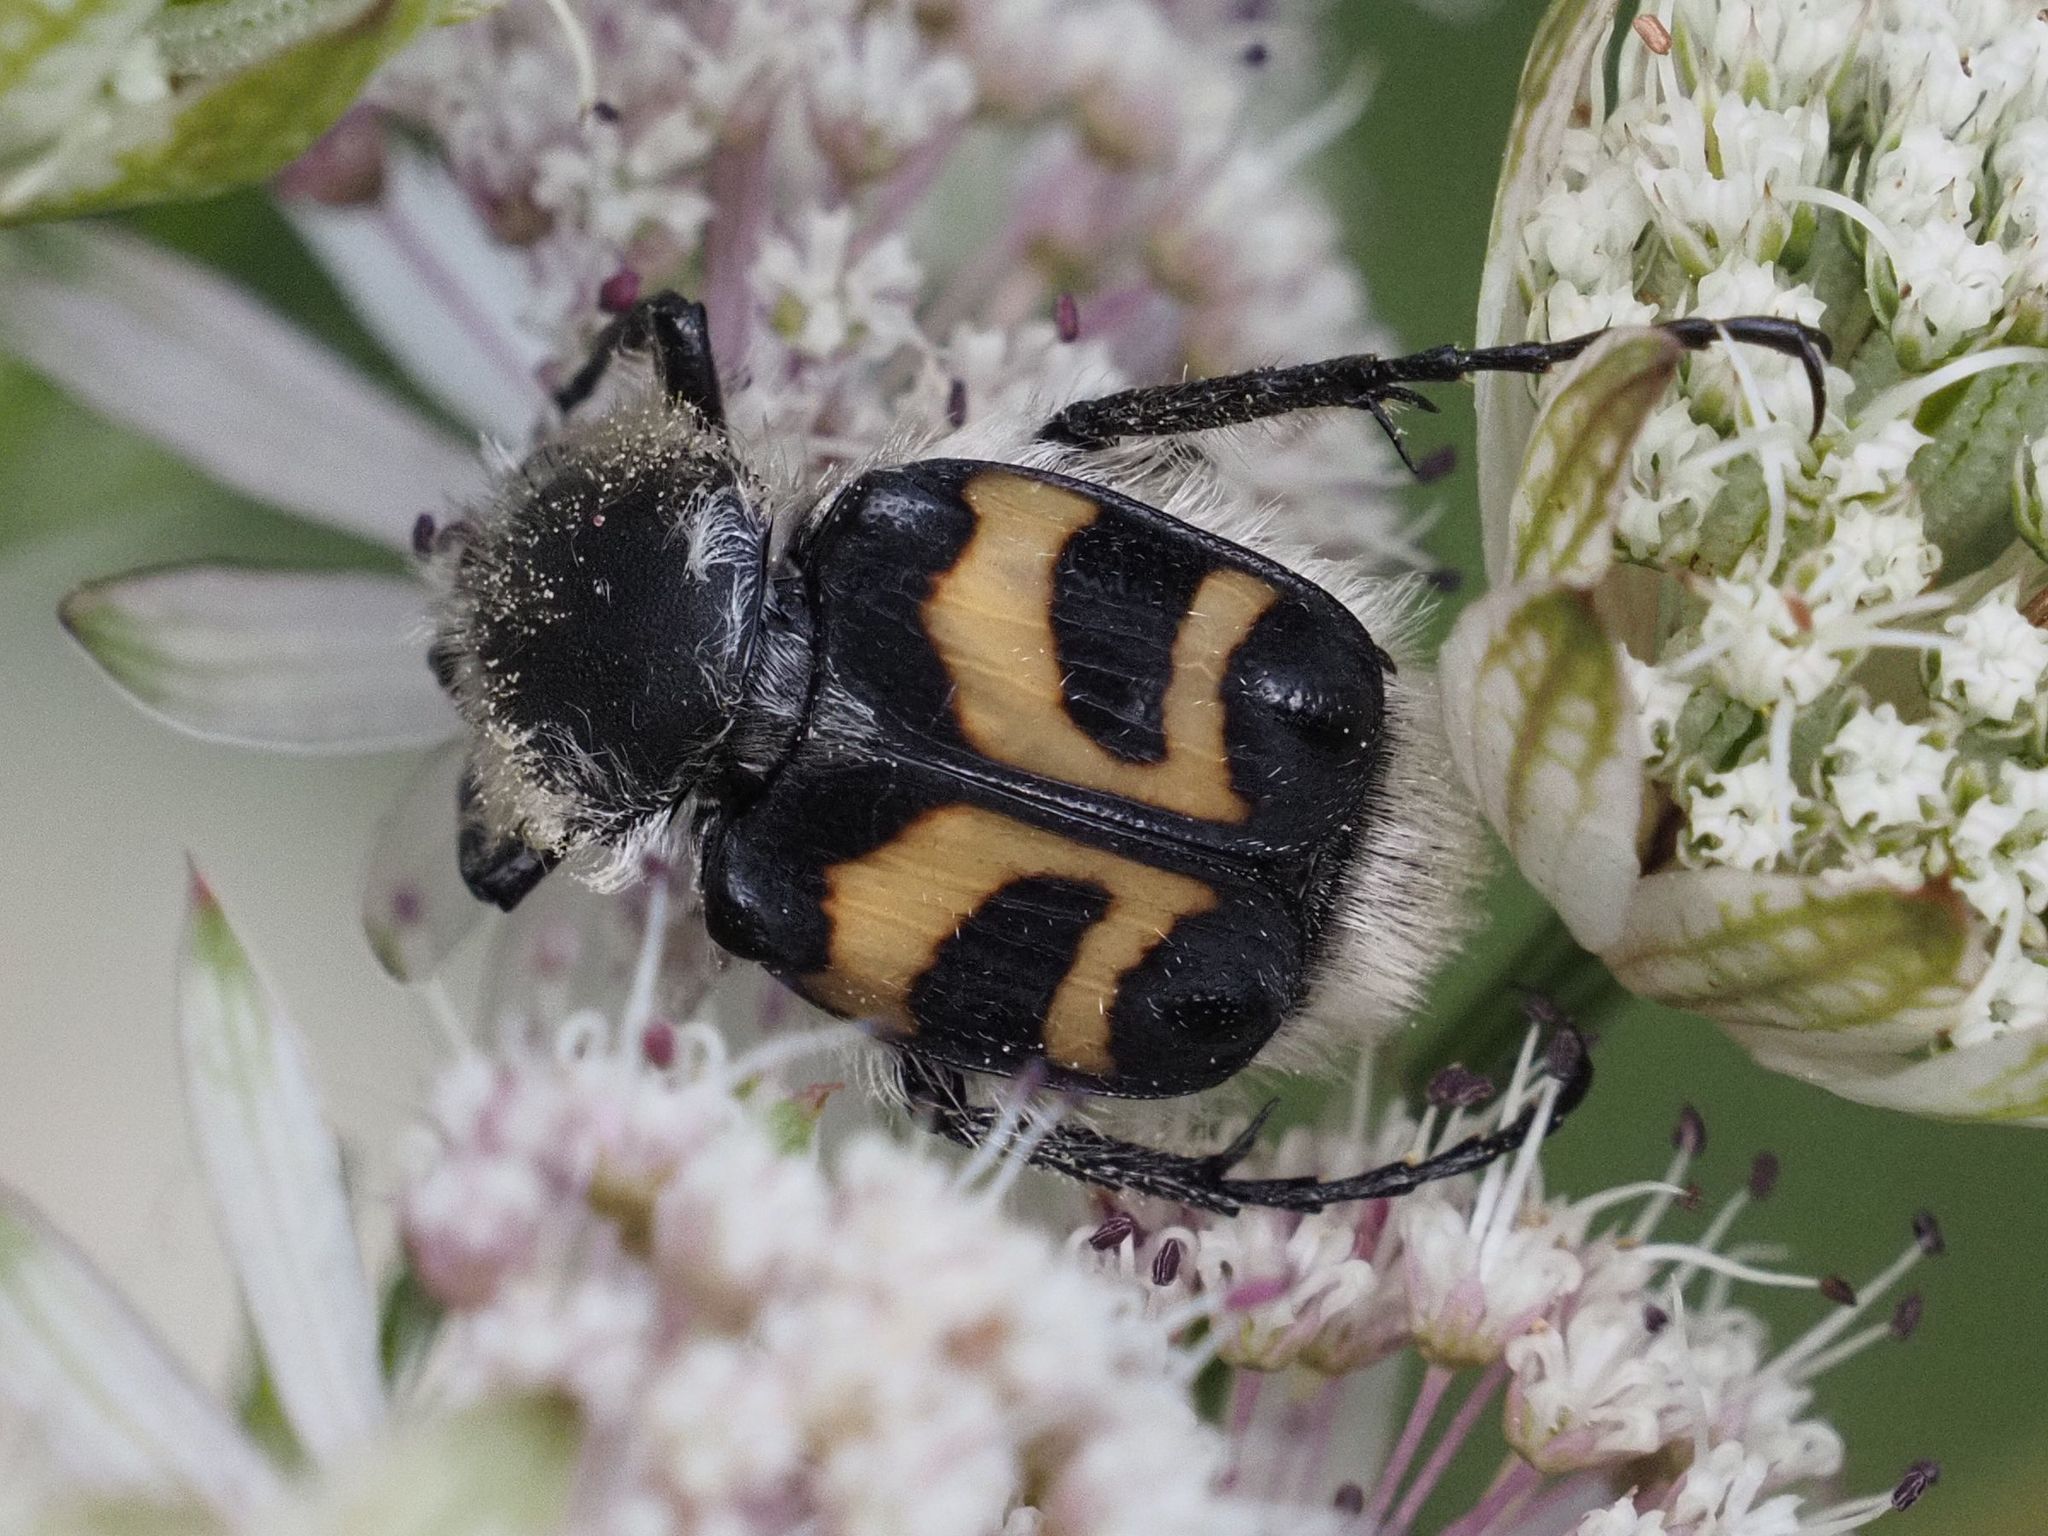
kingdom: Animalia
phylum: Arthropoda
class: Insecta
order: Coleoptera
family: Scarabaeidae
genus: Trichius
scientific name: Trichius fasciatus
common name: Bee beetle
